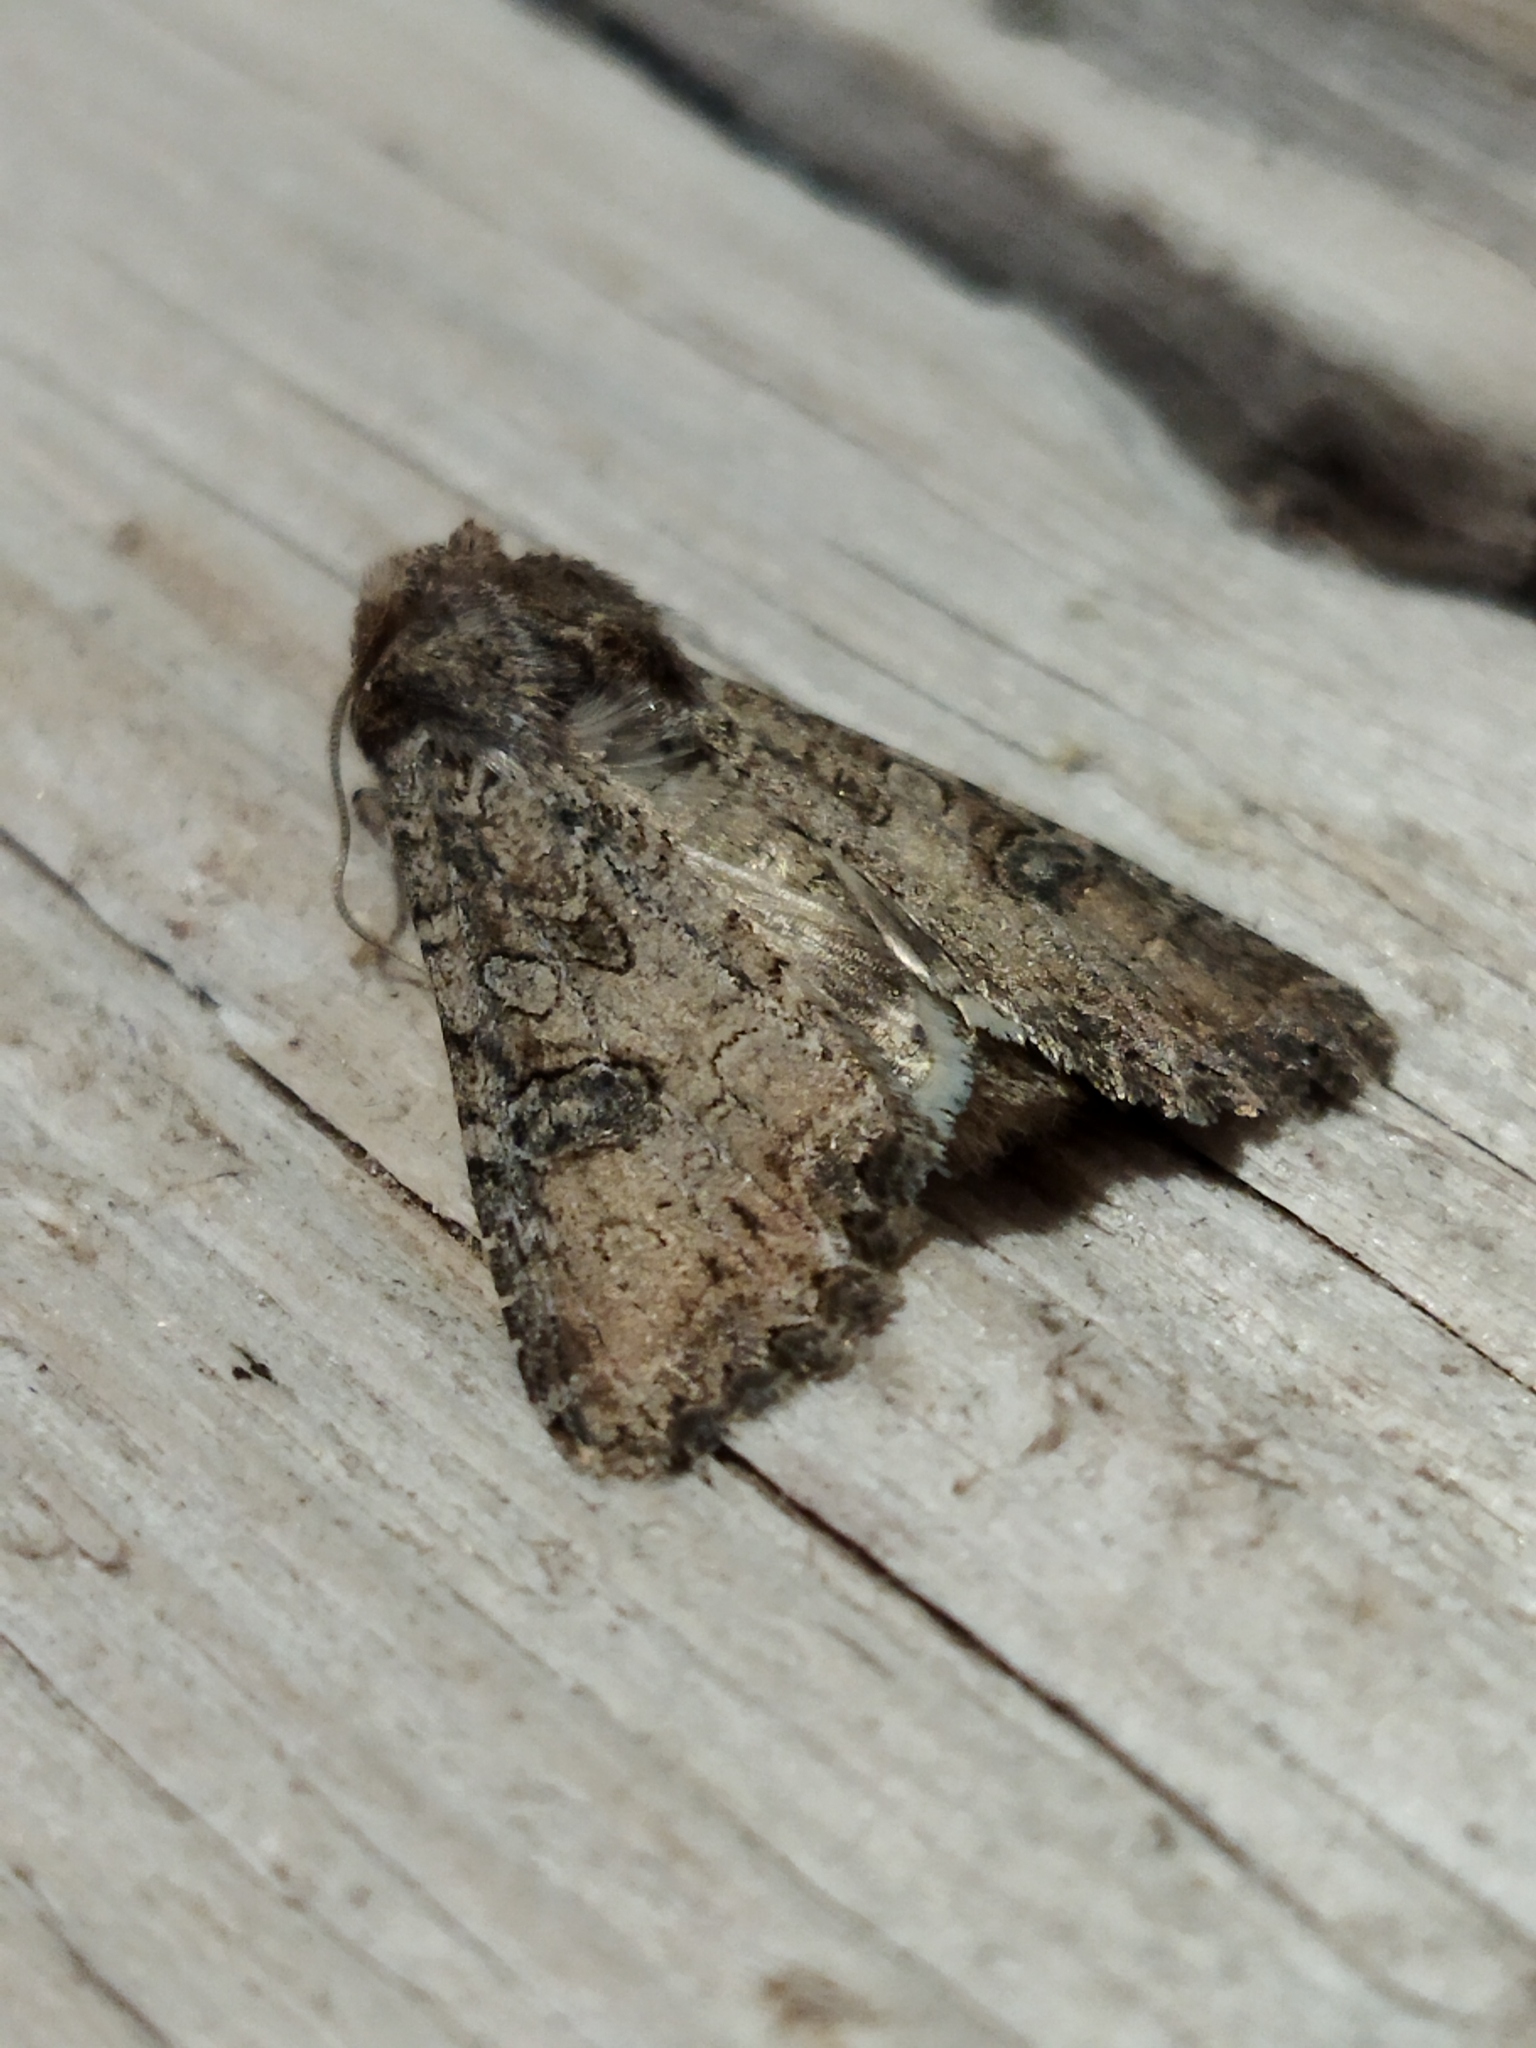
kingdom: Animalia
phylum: Arthropoda
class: Insecta
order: Lepidoptera
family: Noctuidae
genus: Anarta
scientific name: Anarta trifolii
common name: Clover cutworm moth
